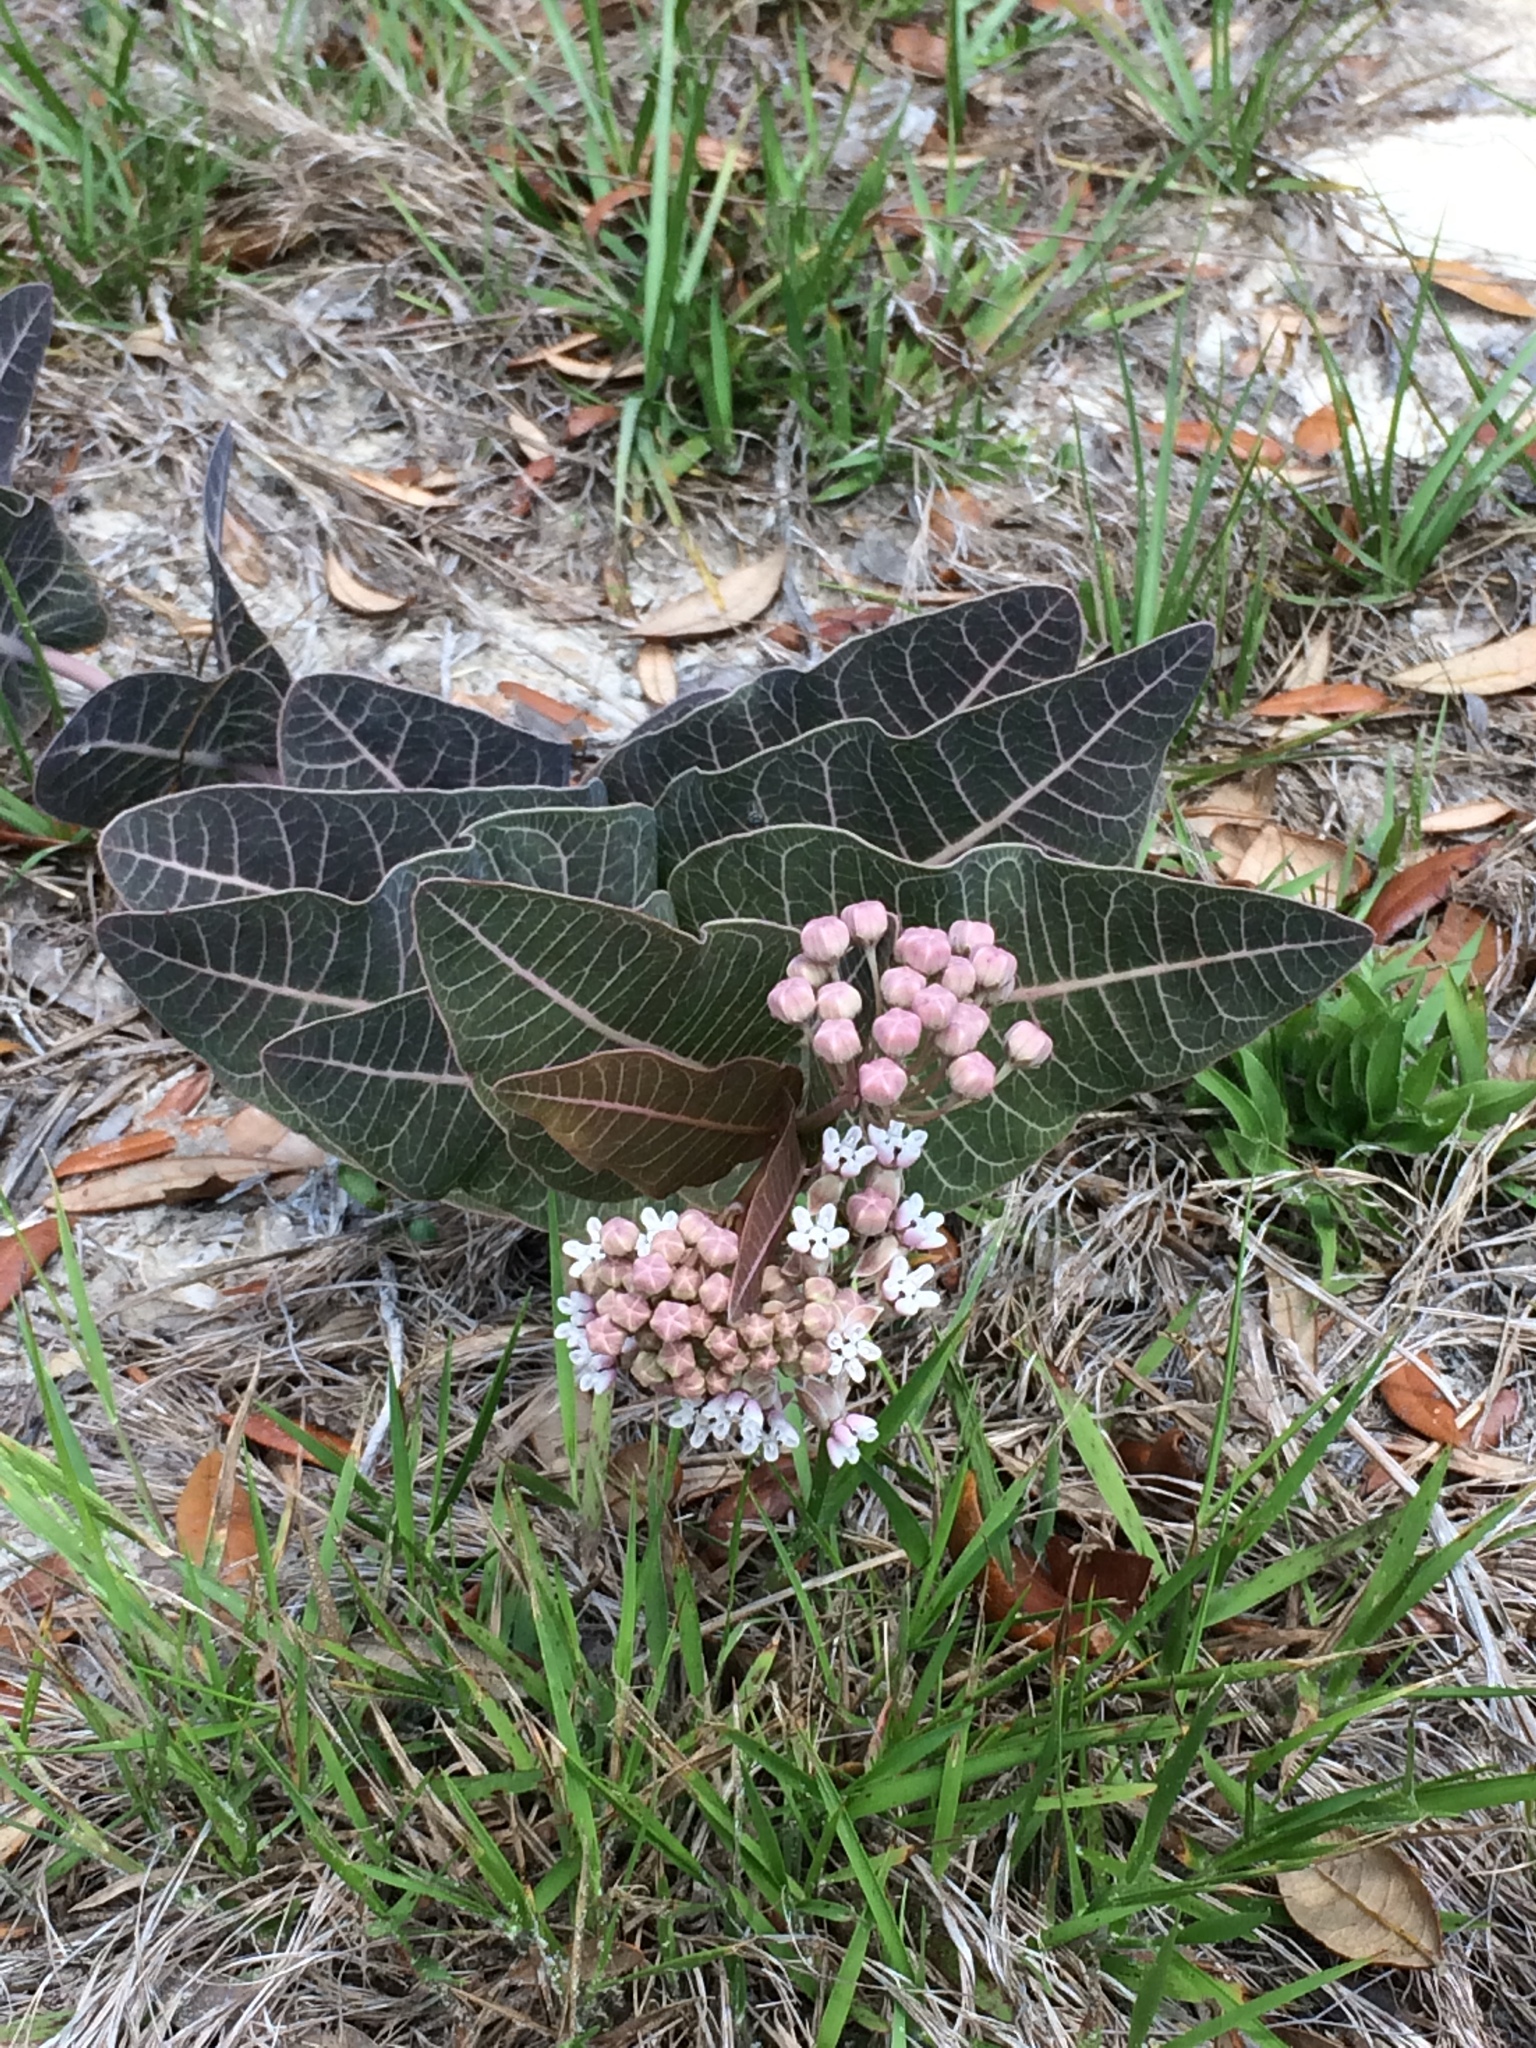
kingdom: Plantae
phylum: Tracheophyta
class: Magnoliopsida
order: Gentianales
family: Apocynaceae
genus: Asclepias
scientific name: Asclepias humistrata
